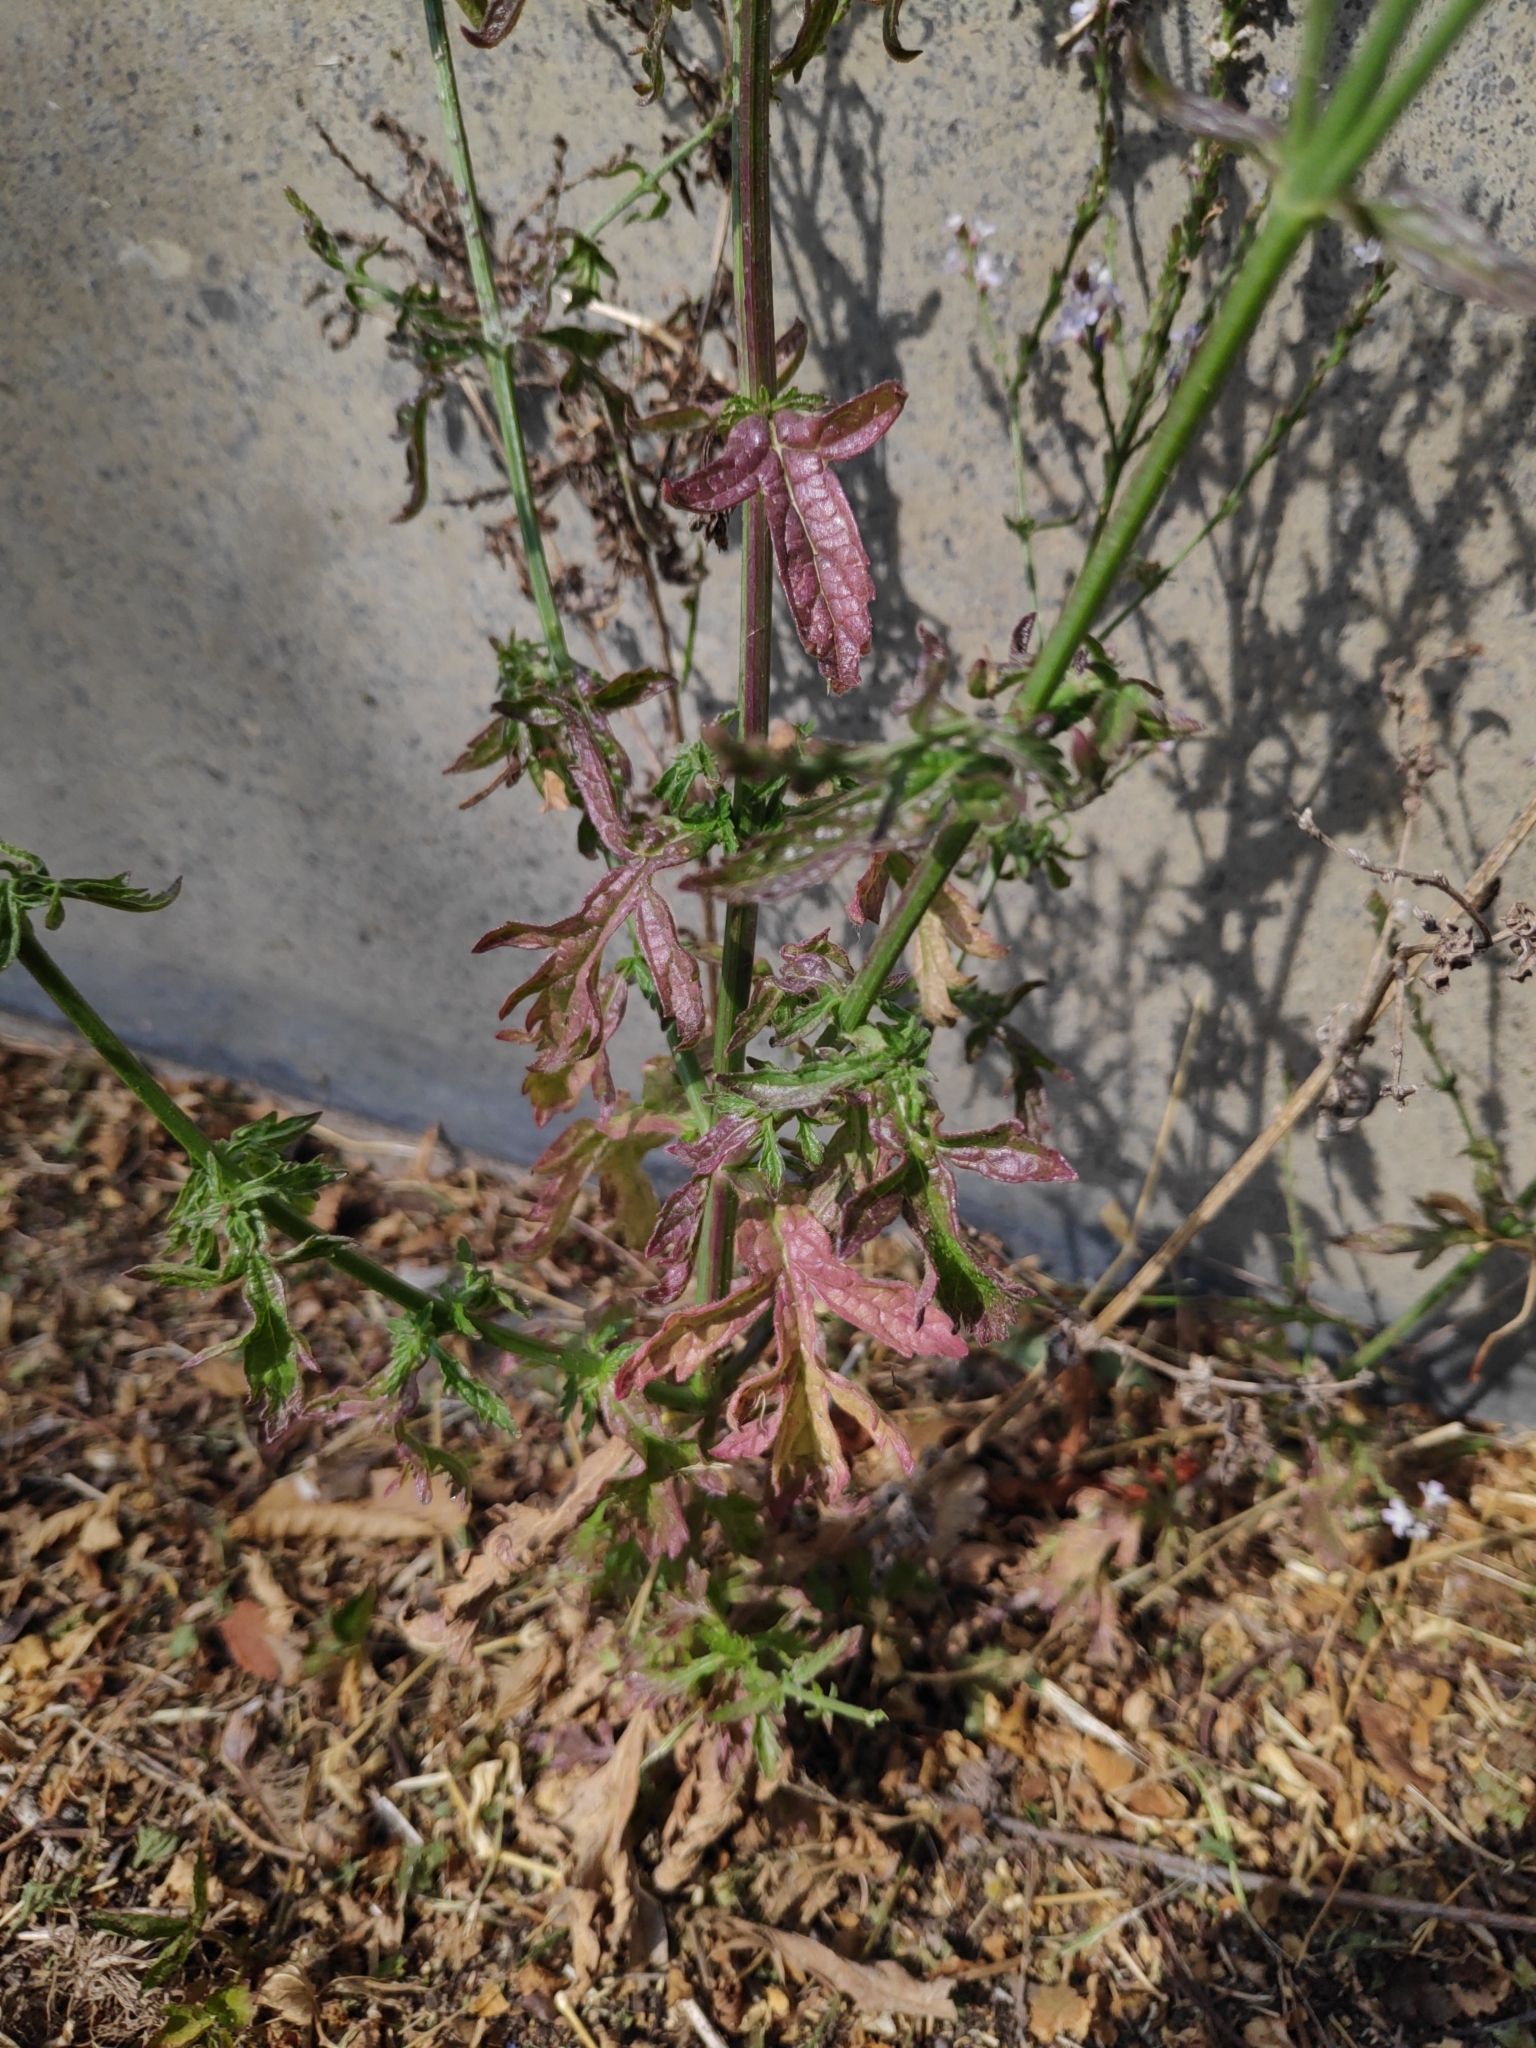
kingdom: Plantae
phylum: Tracheophyta
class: Magnoliopsida
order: Lamiales
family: Verbenaceae
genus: Verbena
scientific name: Verbena officinalis
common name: Vervain
